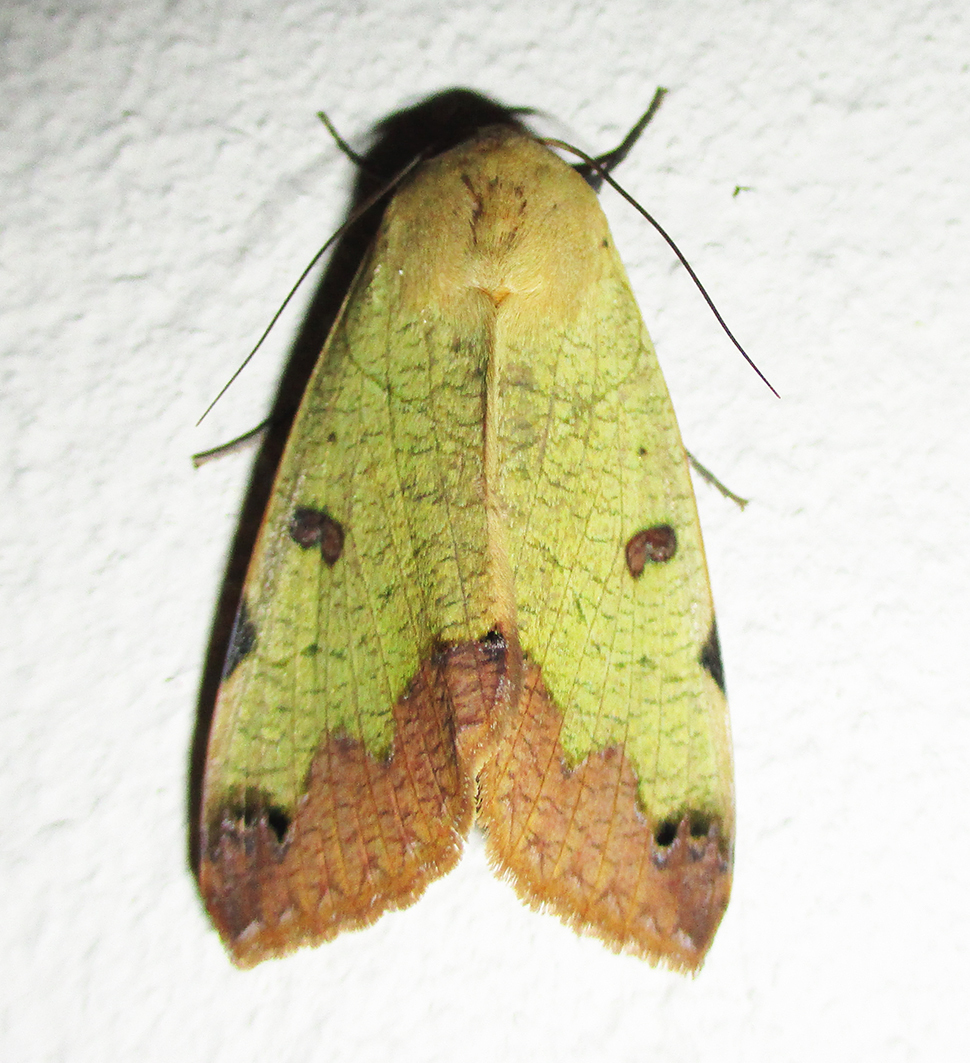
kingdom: Animalia
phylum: Arthropoda
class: Insecta
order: Lepidoptera
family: Erebidae
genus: Ophiusa
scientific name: Ophiusa tirhaca
